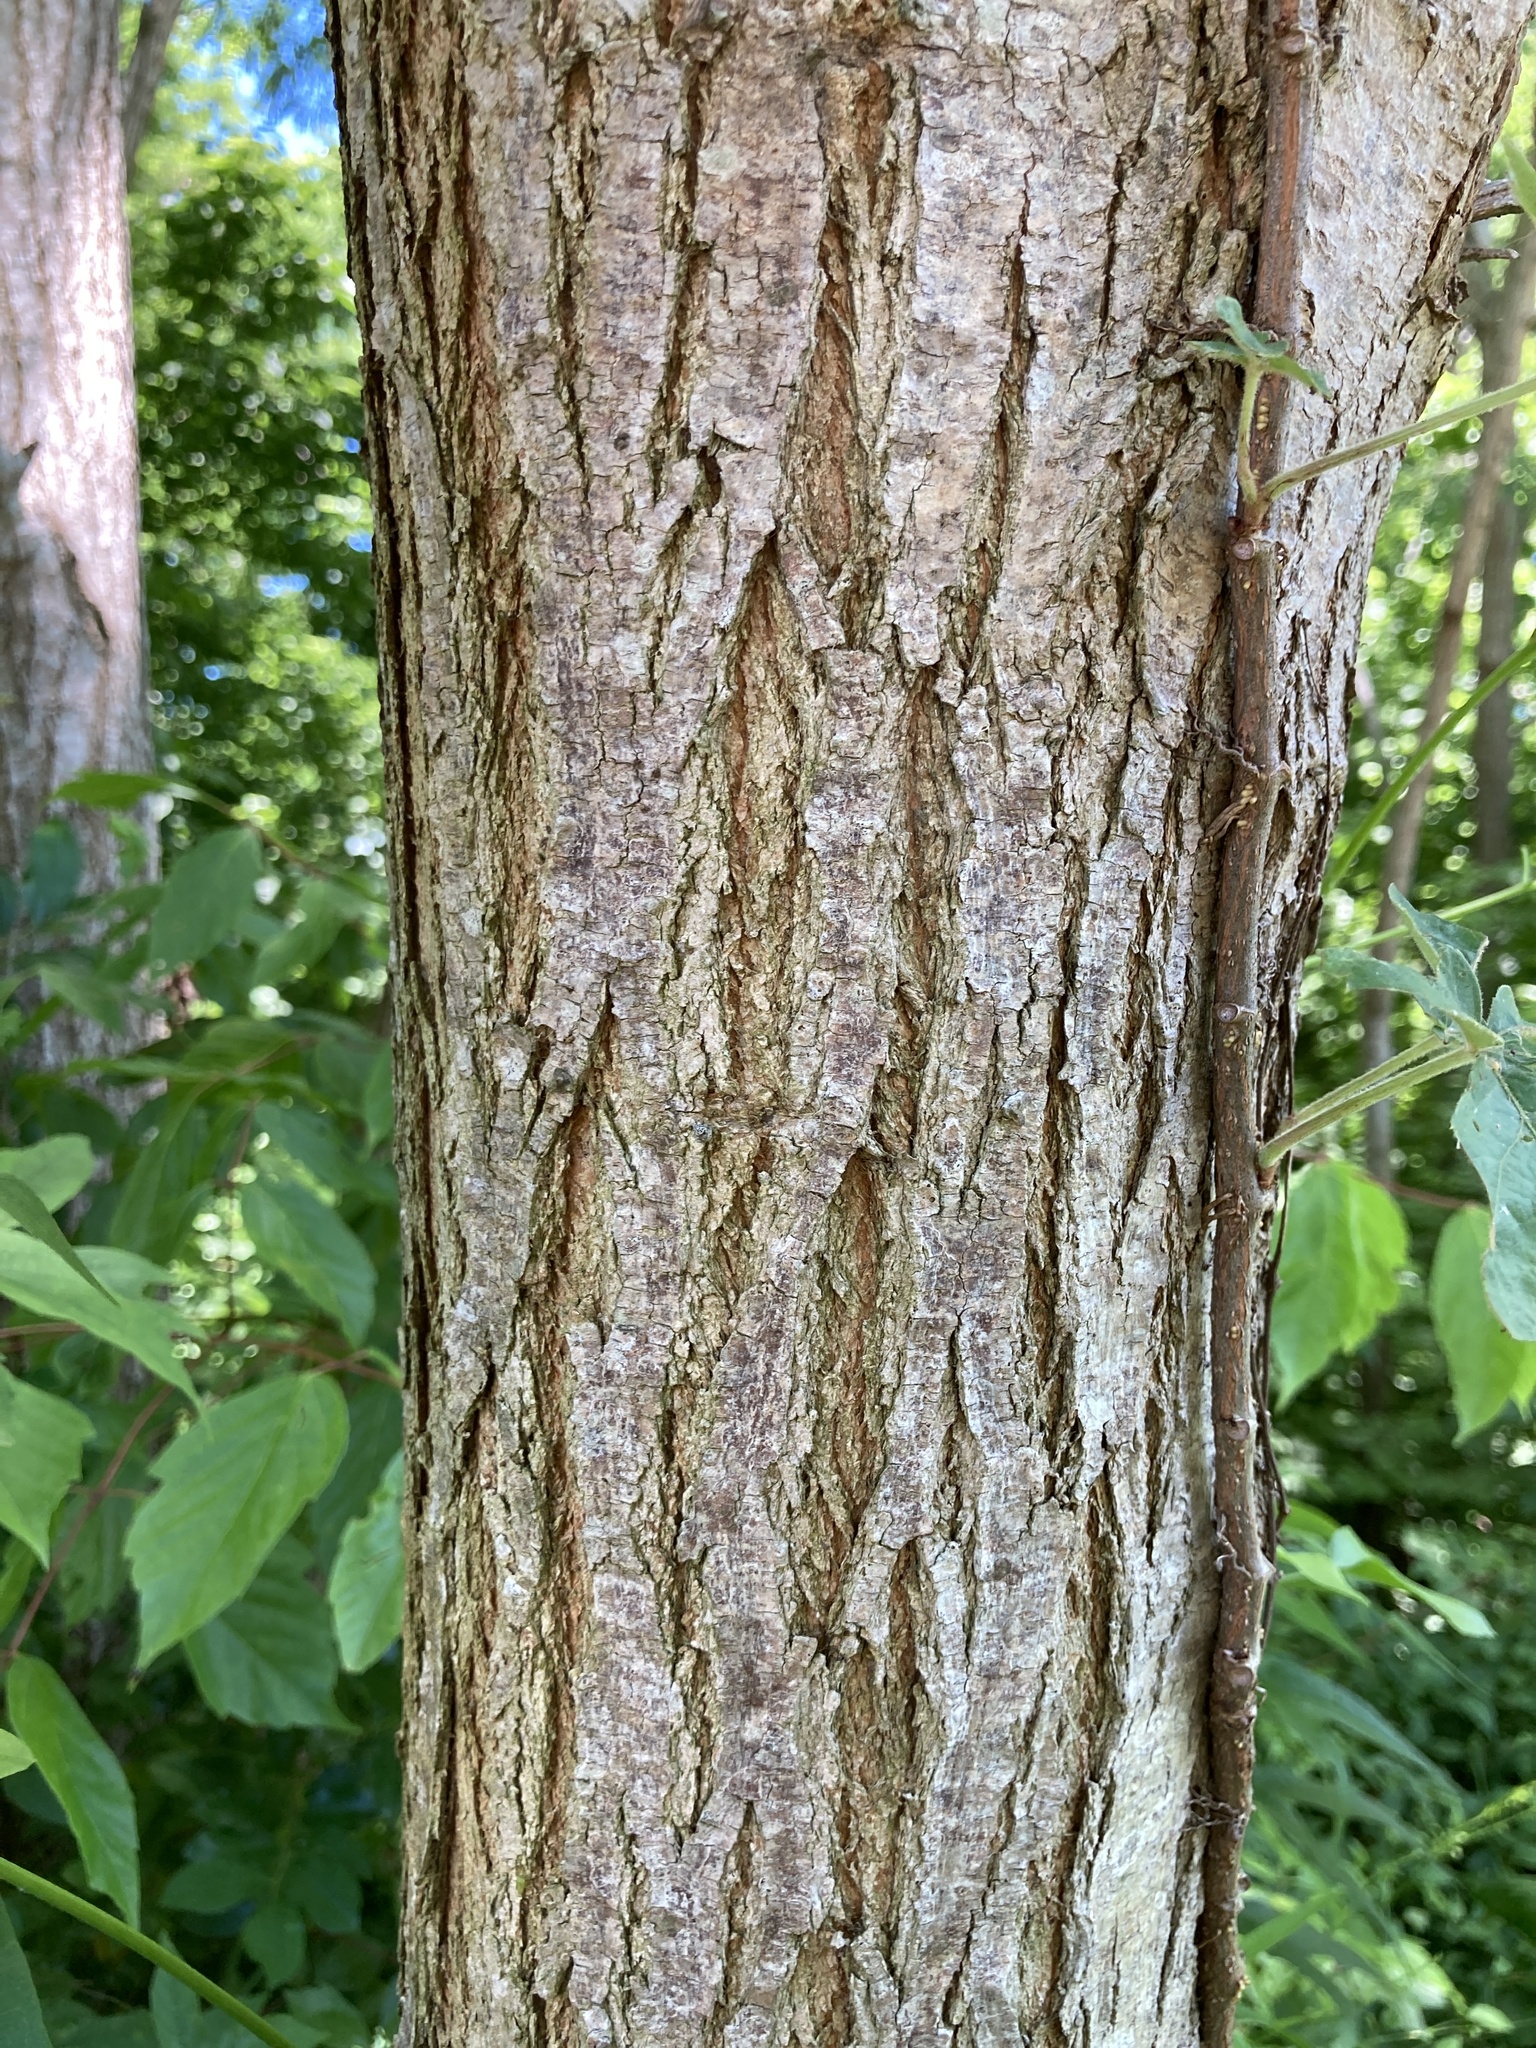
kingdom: Plantae
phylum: Tracheophyta
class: Magnoliopsida
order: Fabales
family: Fabaceae
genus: Robinia
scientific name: Robinia pseudoacacia
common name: Black locust
